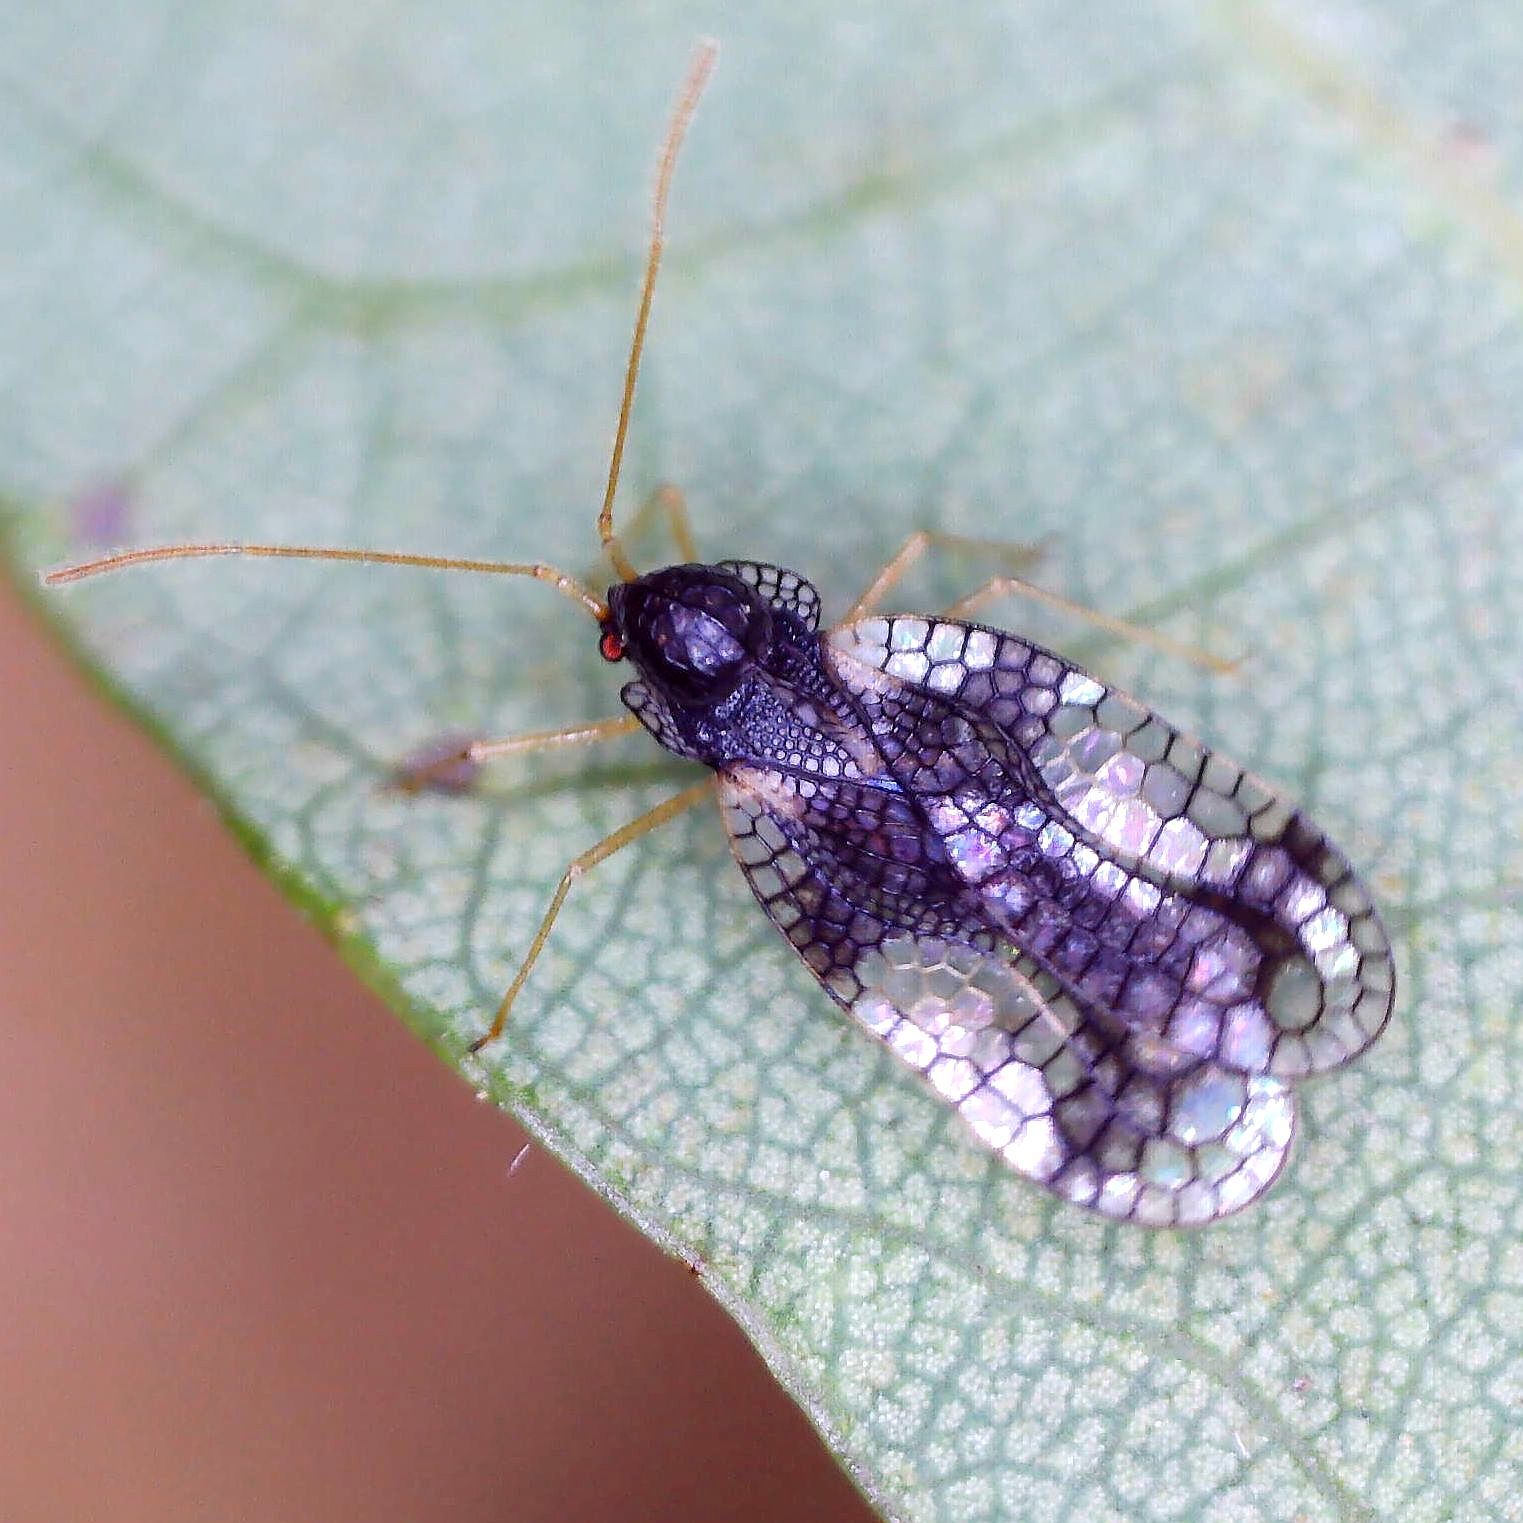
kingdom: Animalia
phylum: Arthropoda
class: Insecta
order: Hemiptera
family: Tingidae
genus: Stephanitis
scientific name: Stephanitis takeyai
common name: Andromeda lacebug
